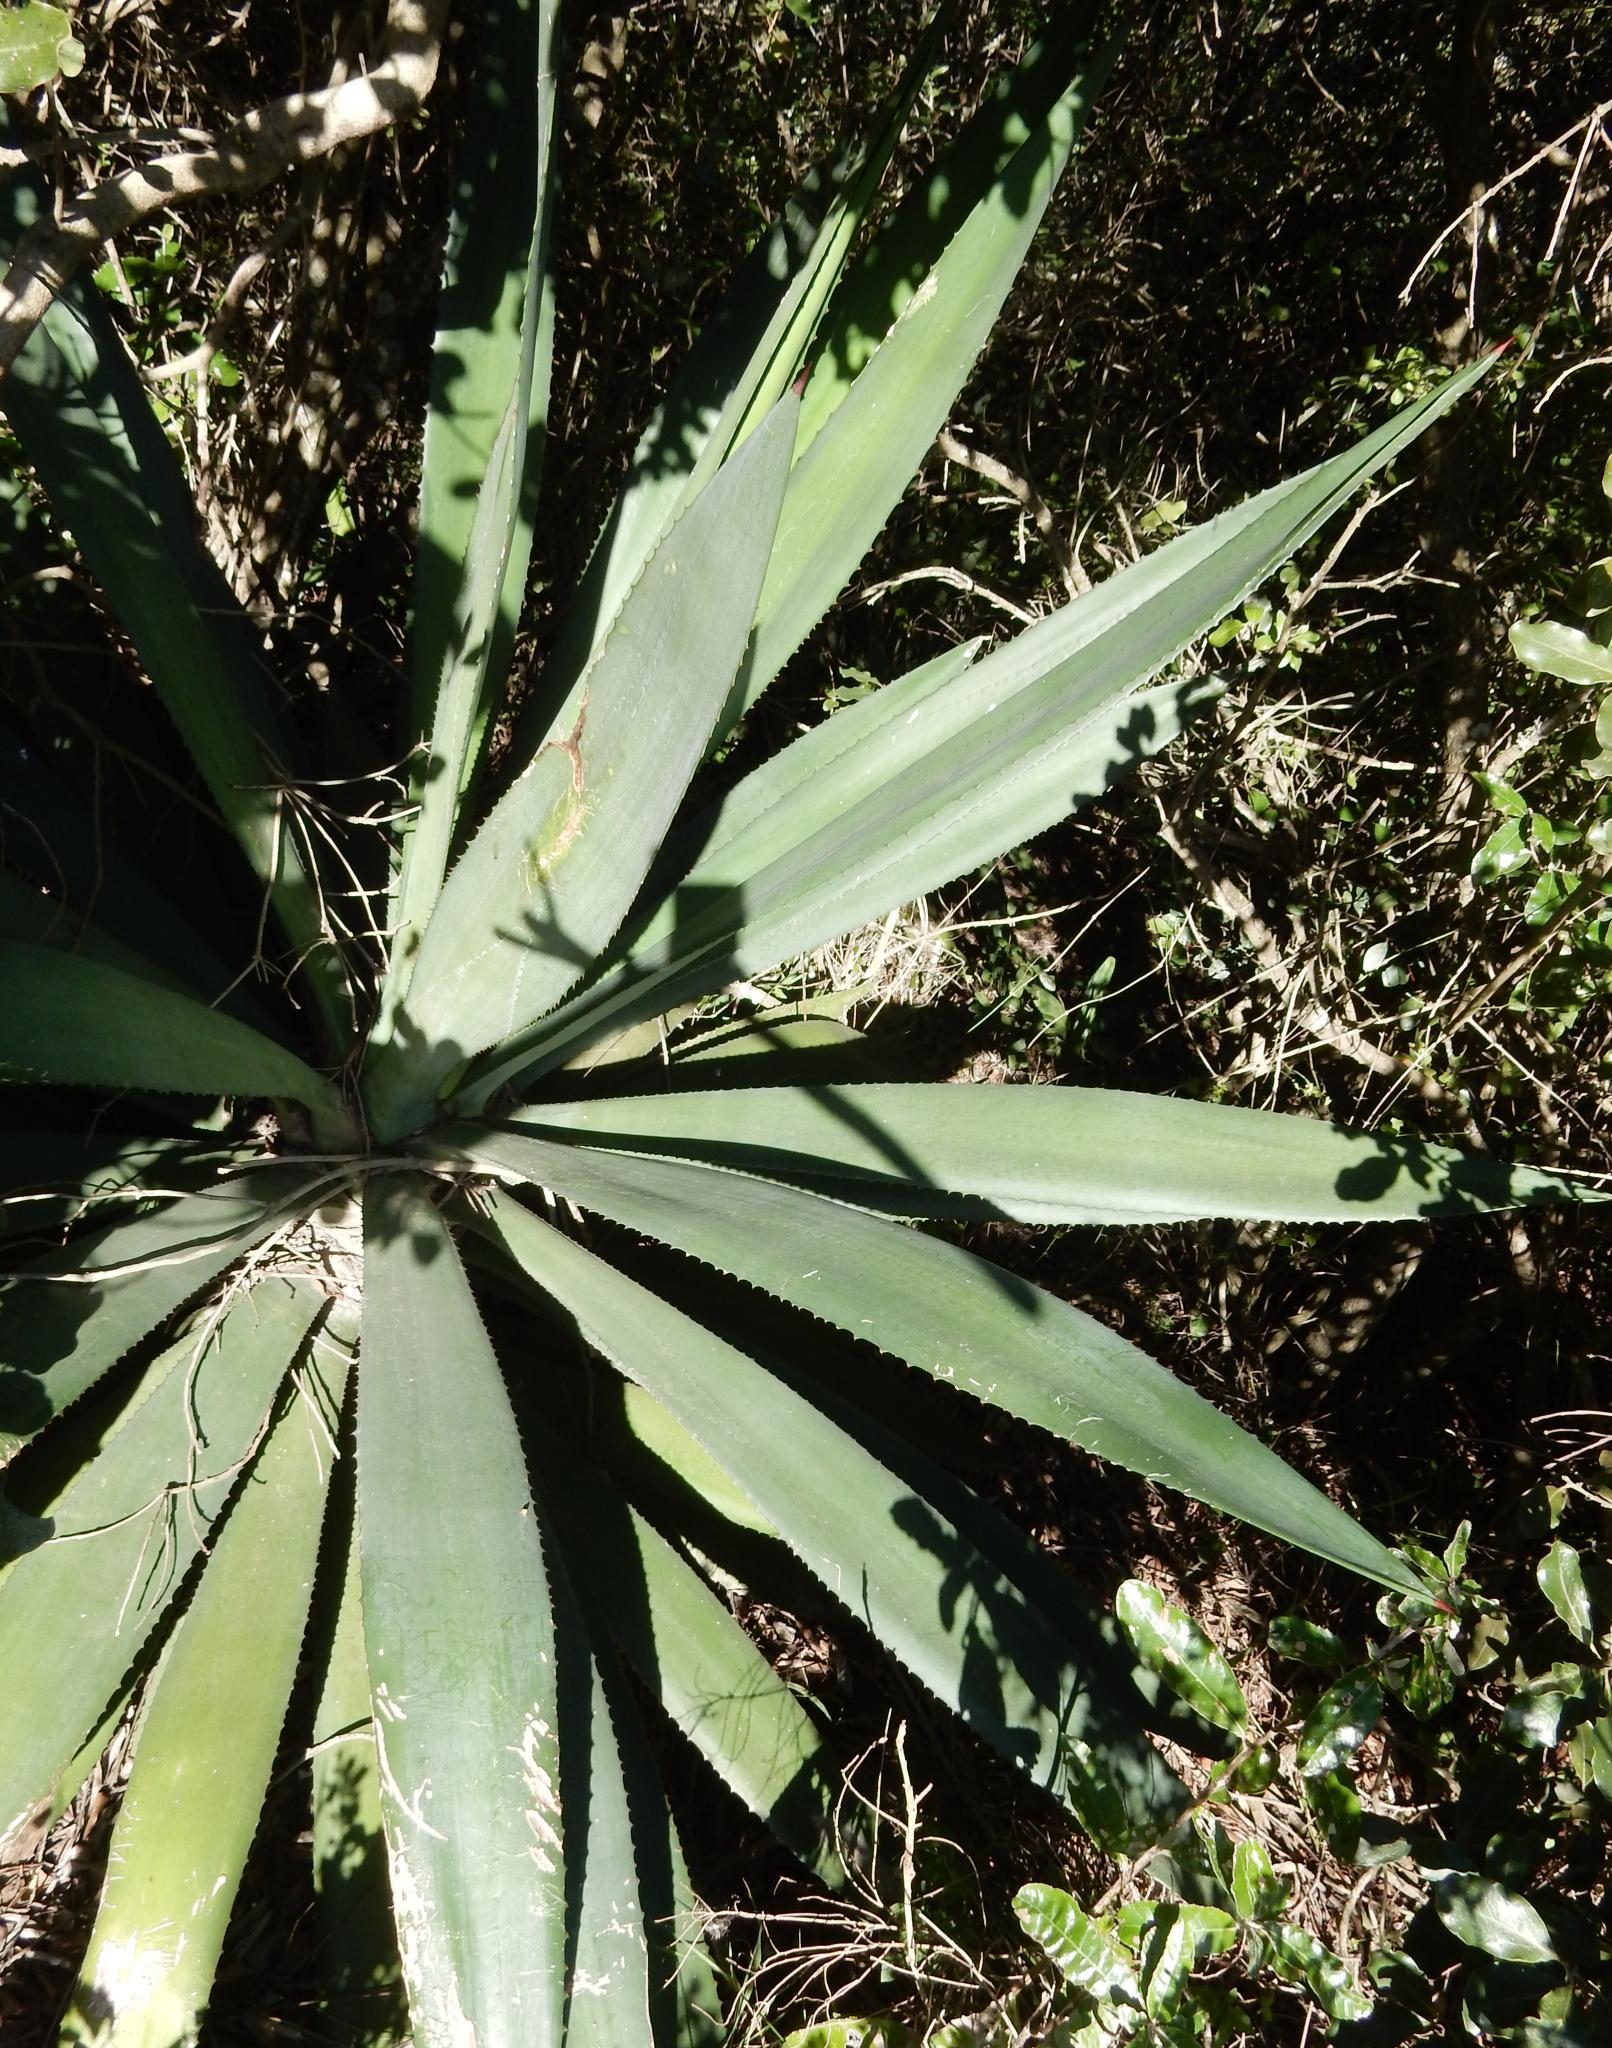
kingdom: Plantae
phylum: Tracheophyta
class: Liliopsida
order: Asparagales
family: Asparagaceae
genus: Agave
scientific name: Agave angustifolia
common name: Mescal agave
